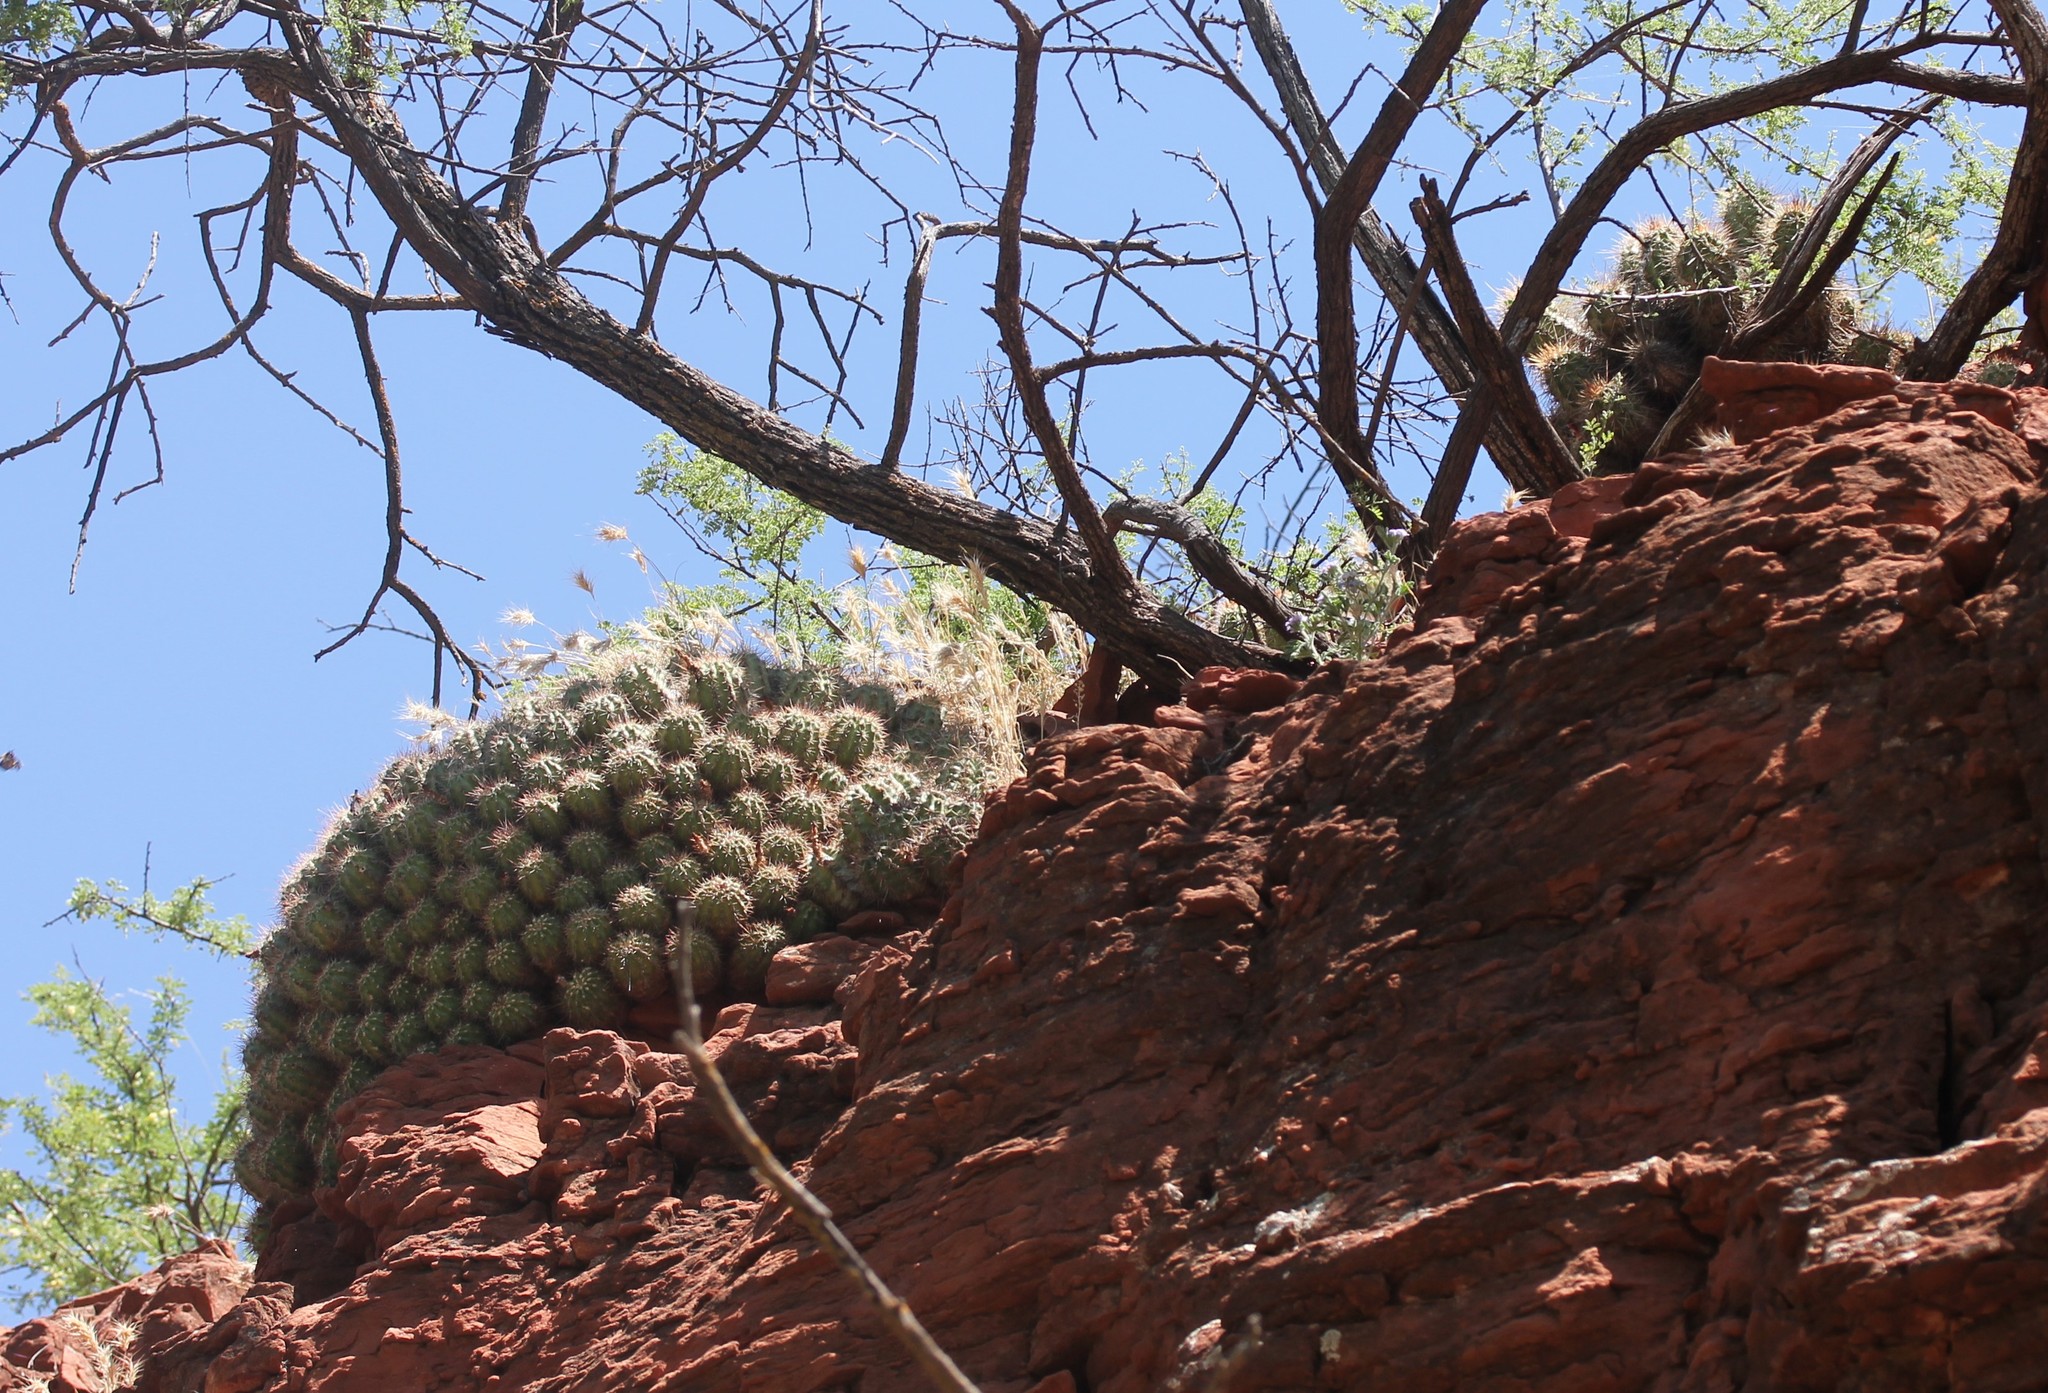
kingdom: Plantae
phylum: Tracheophyta
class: Magnoliopsida
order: Caryophyllales
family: Cactaceae
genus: Echinocereus
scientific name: Echinocereus bakeri
